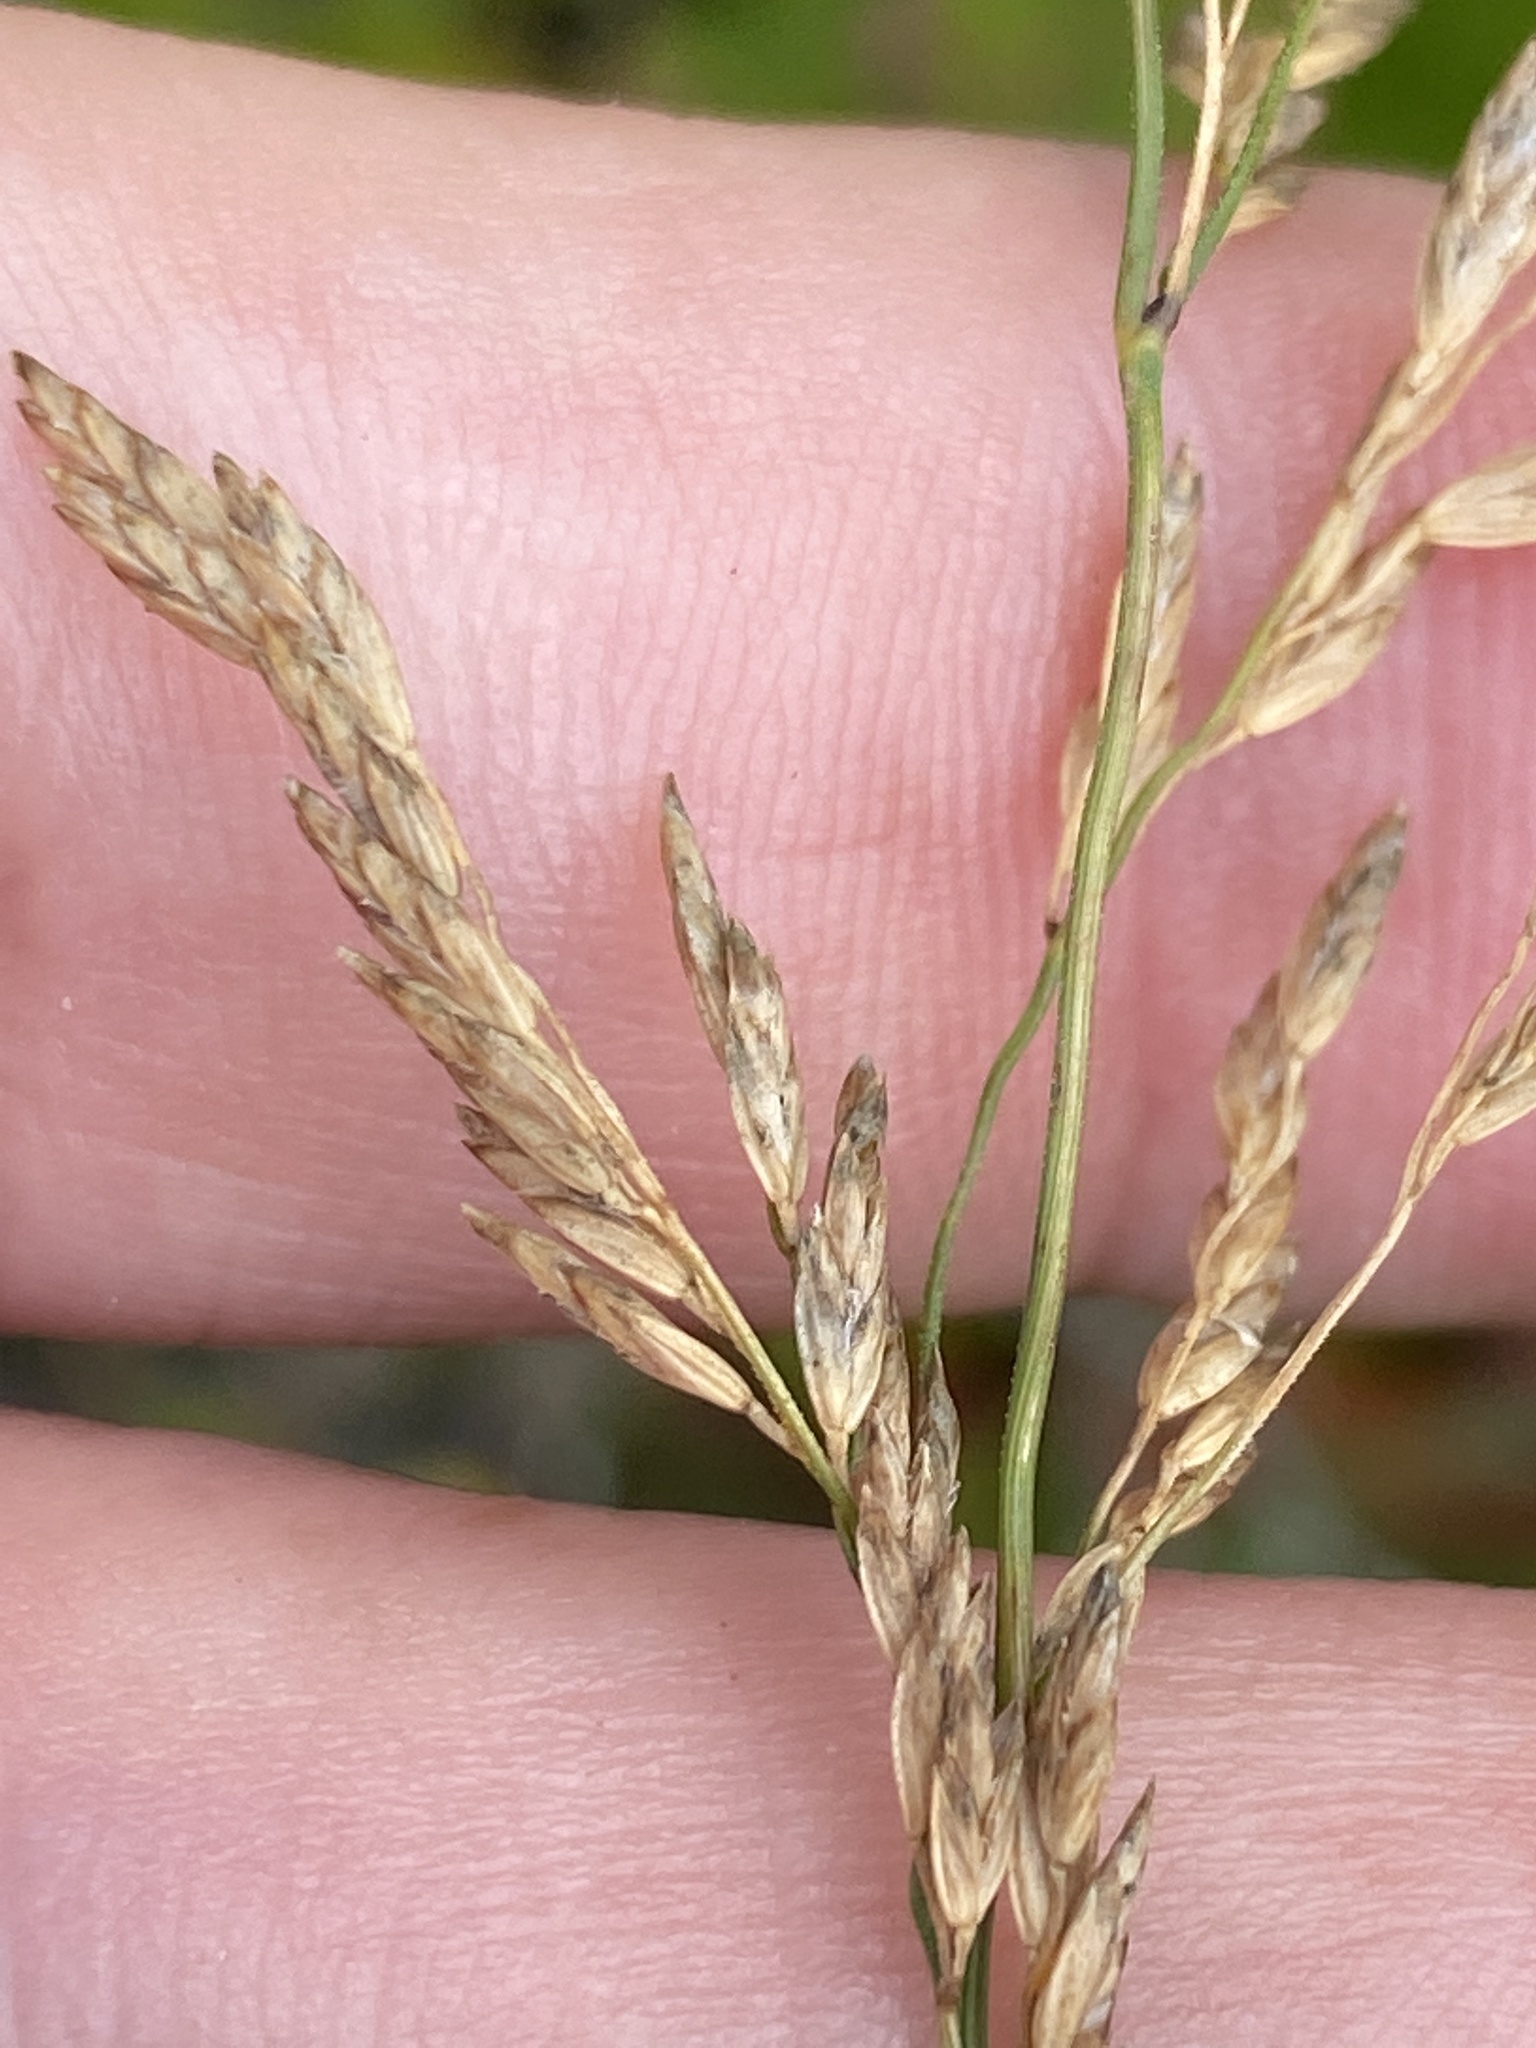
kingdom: Plantae
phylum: Tracheophyta
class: Liliopsida
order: Poales
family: Poaceae
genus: Poa
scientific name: Poa cuspidata
